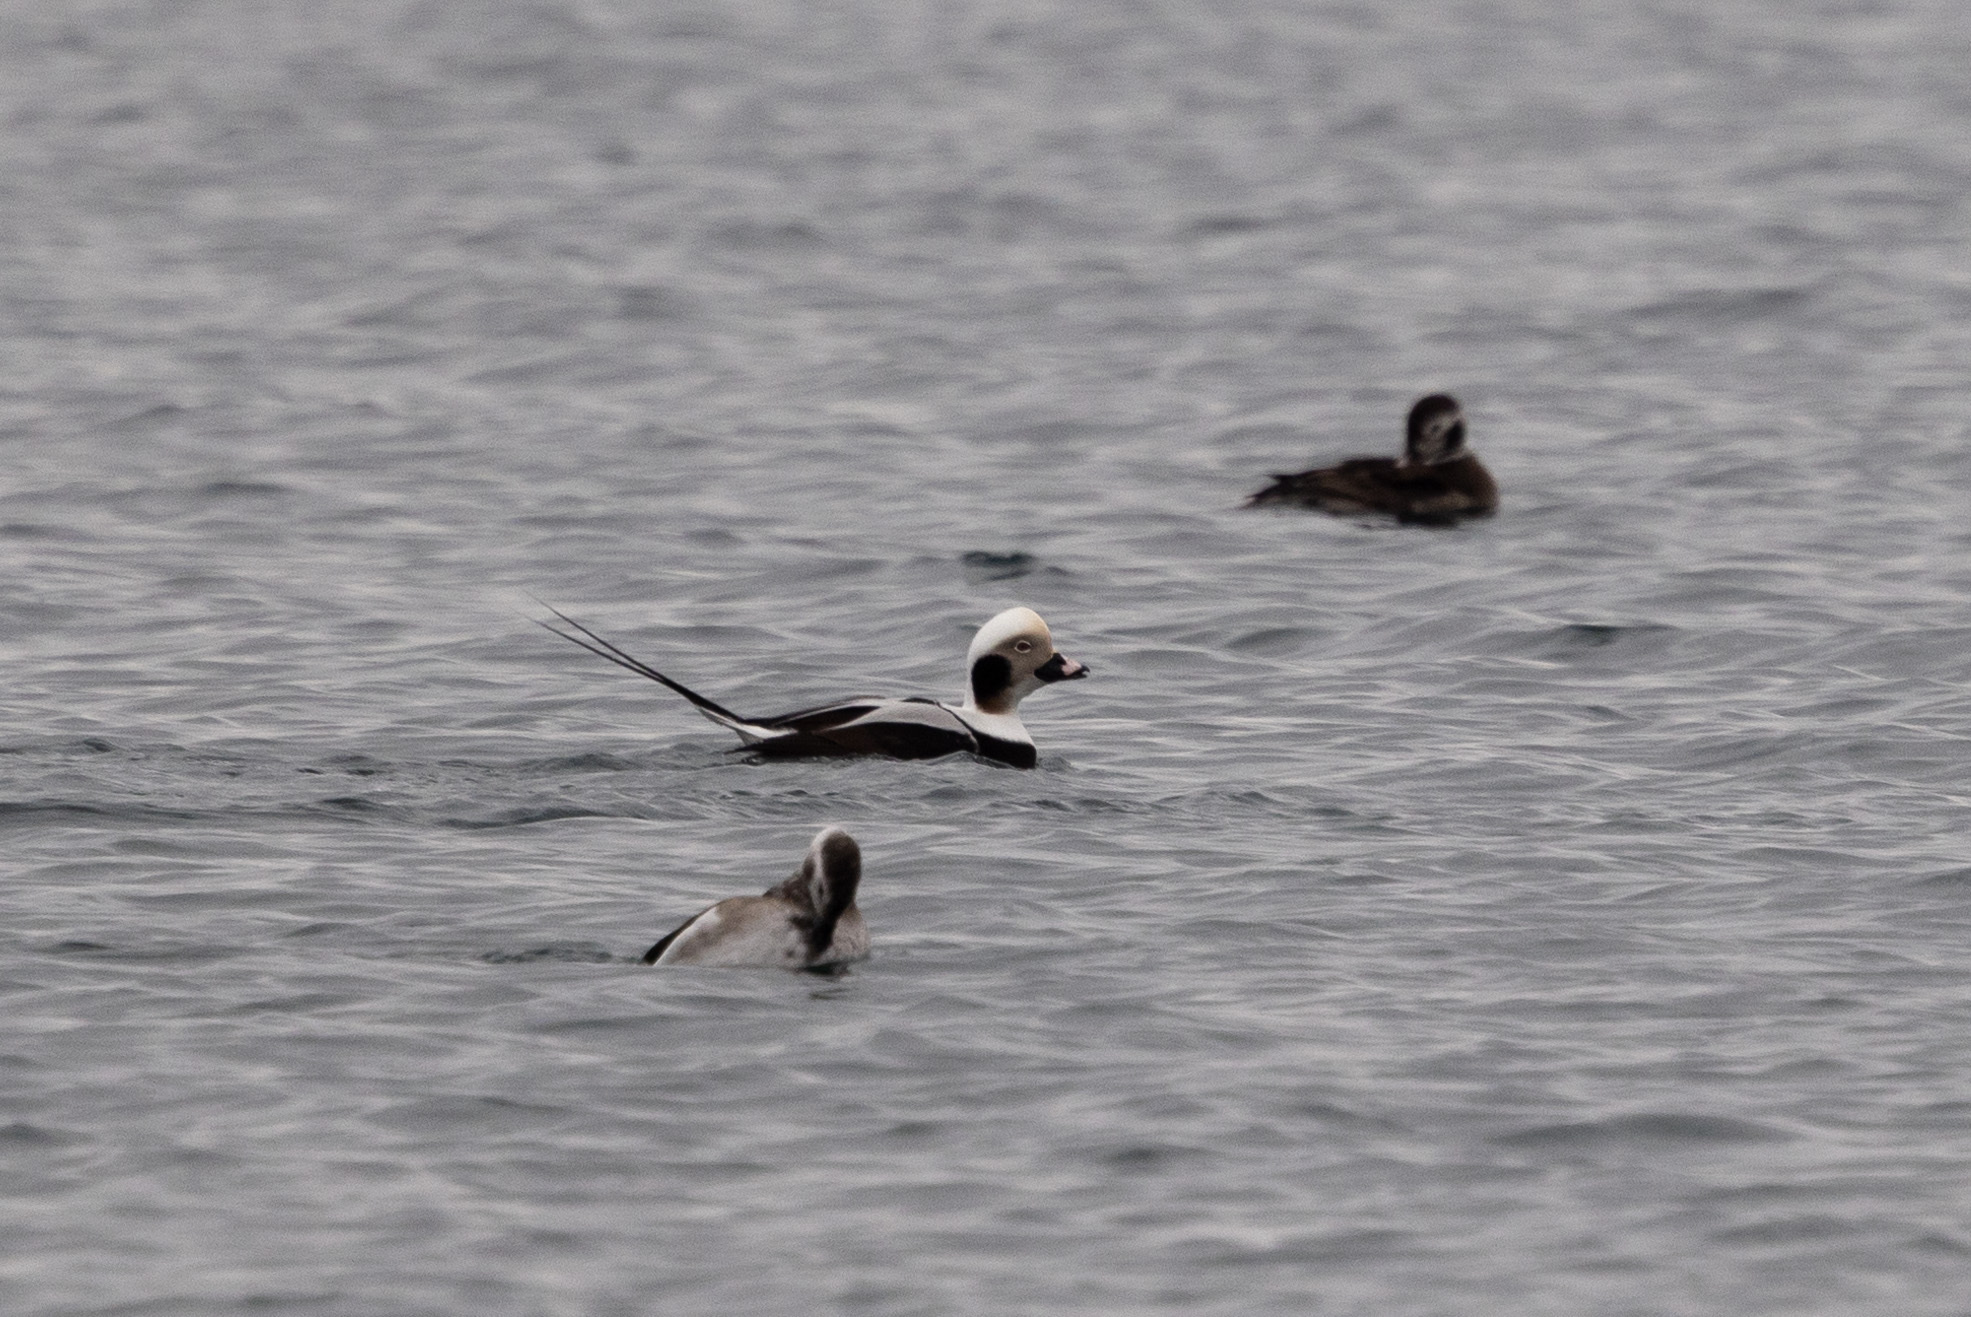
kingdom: Animalia
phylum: Chordata
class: Aves
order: Anseriformes
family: Anatidae
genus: Clangula
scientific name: Clangula hyemalis
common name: Long-tailed duck
